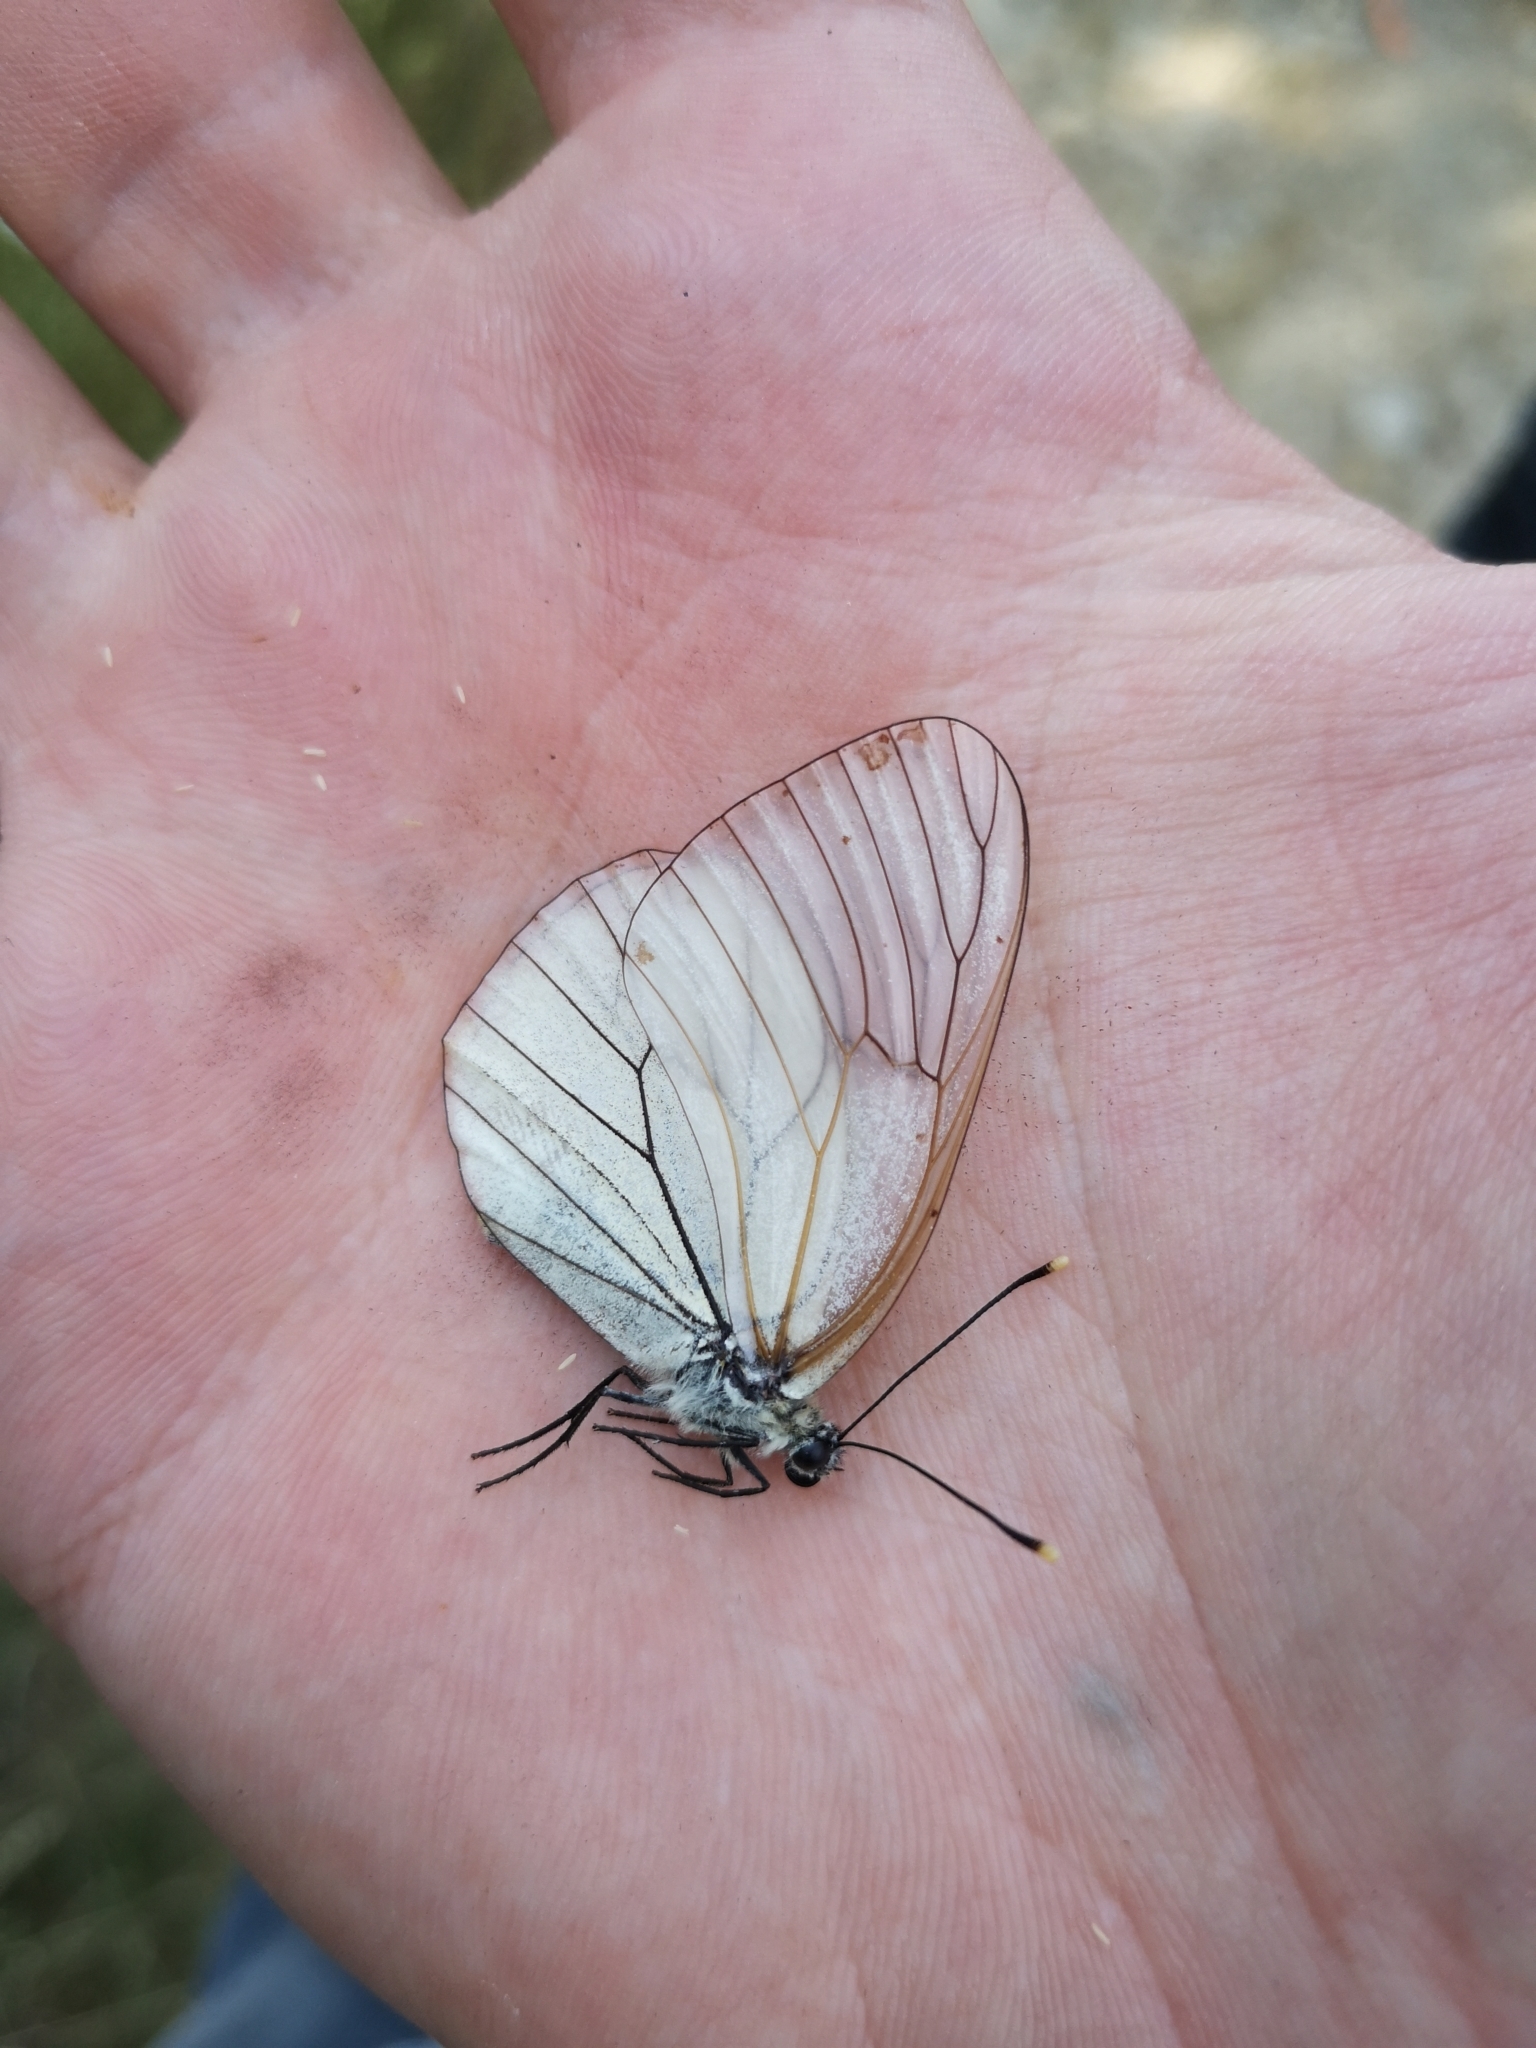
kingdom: Animalia
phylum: Arthropoda
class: Insecta
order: Lepidoptera
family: Pieridae
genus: Aporia
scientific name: Aporia crataegi
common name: Black-veined white
